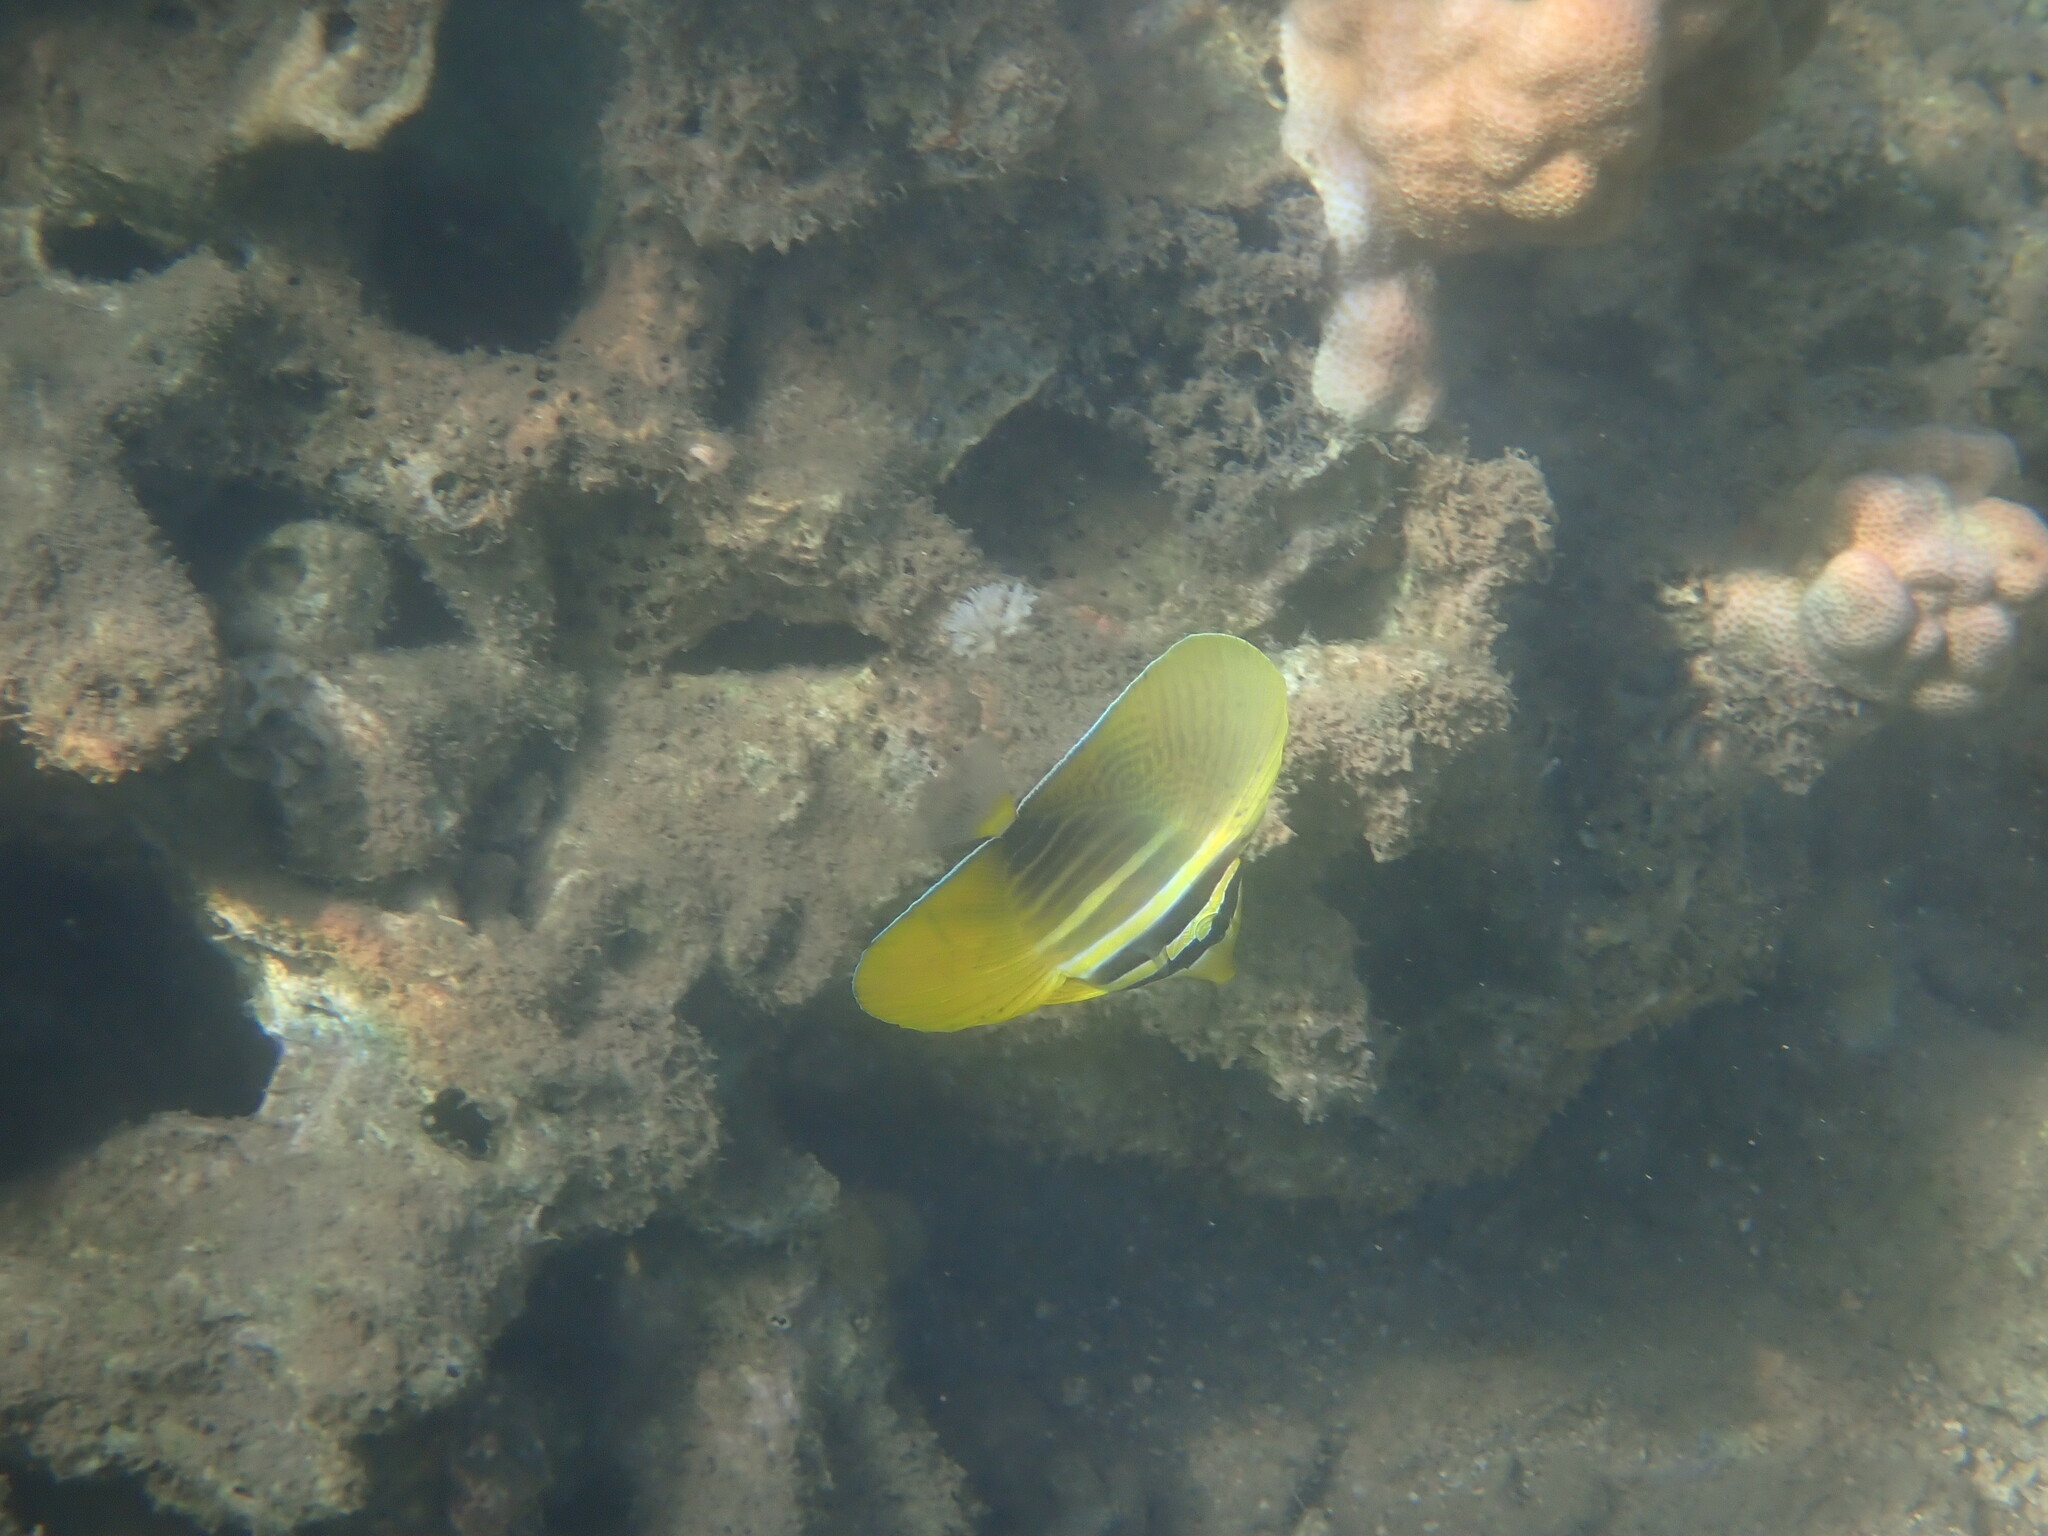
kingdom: Animalia
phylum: Chordata
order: Perciformes
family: Acanthuridae
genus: Zebrasoma
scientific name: Zebrasoma veliferum
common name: Sailfin surgeonfish
